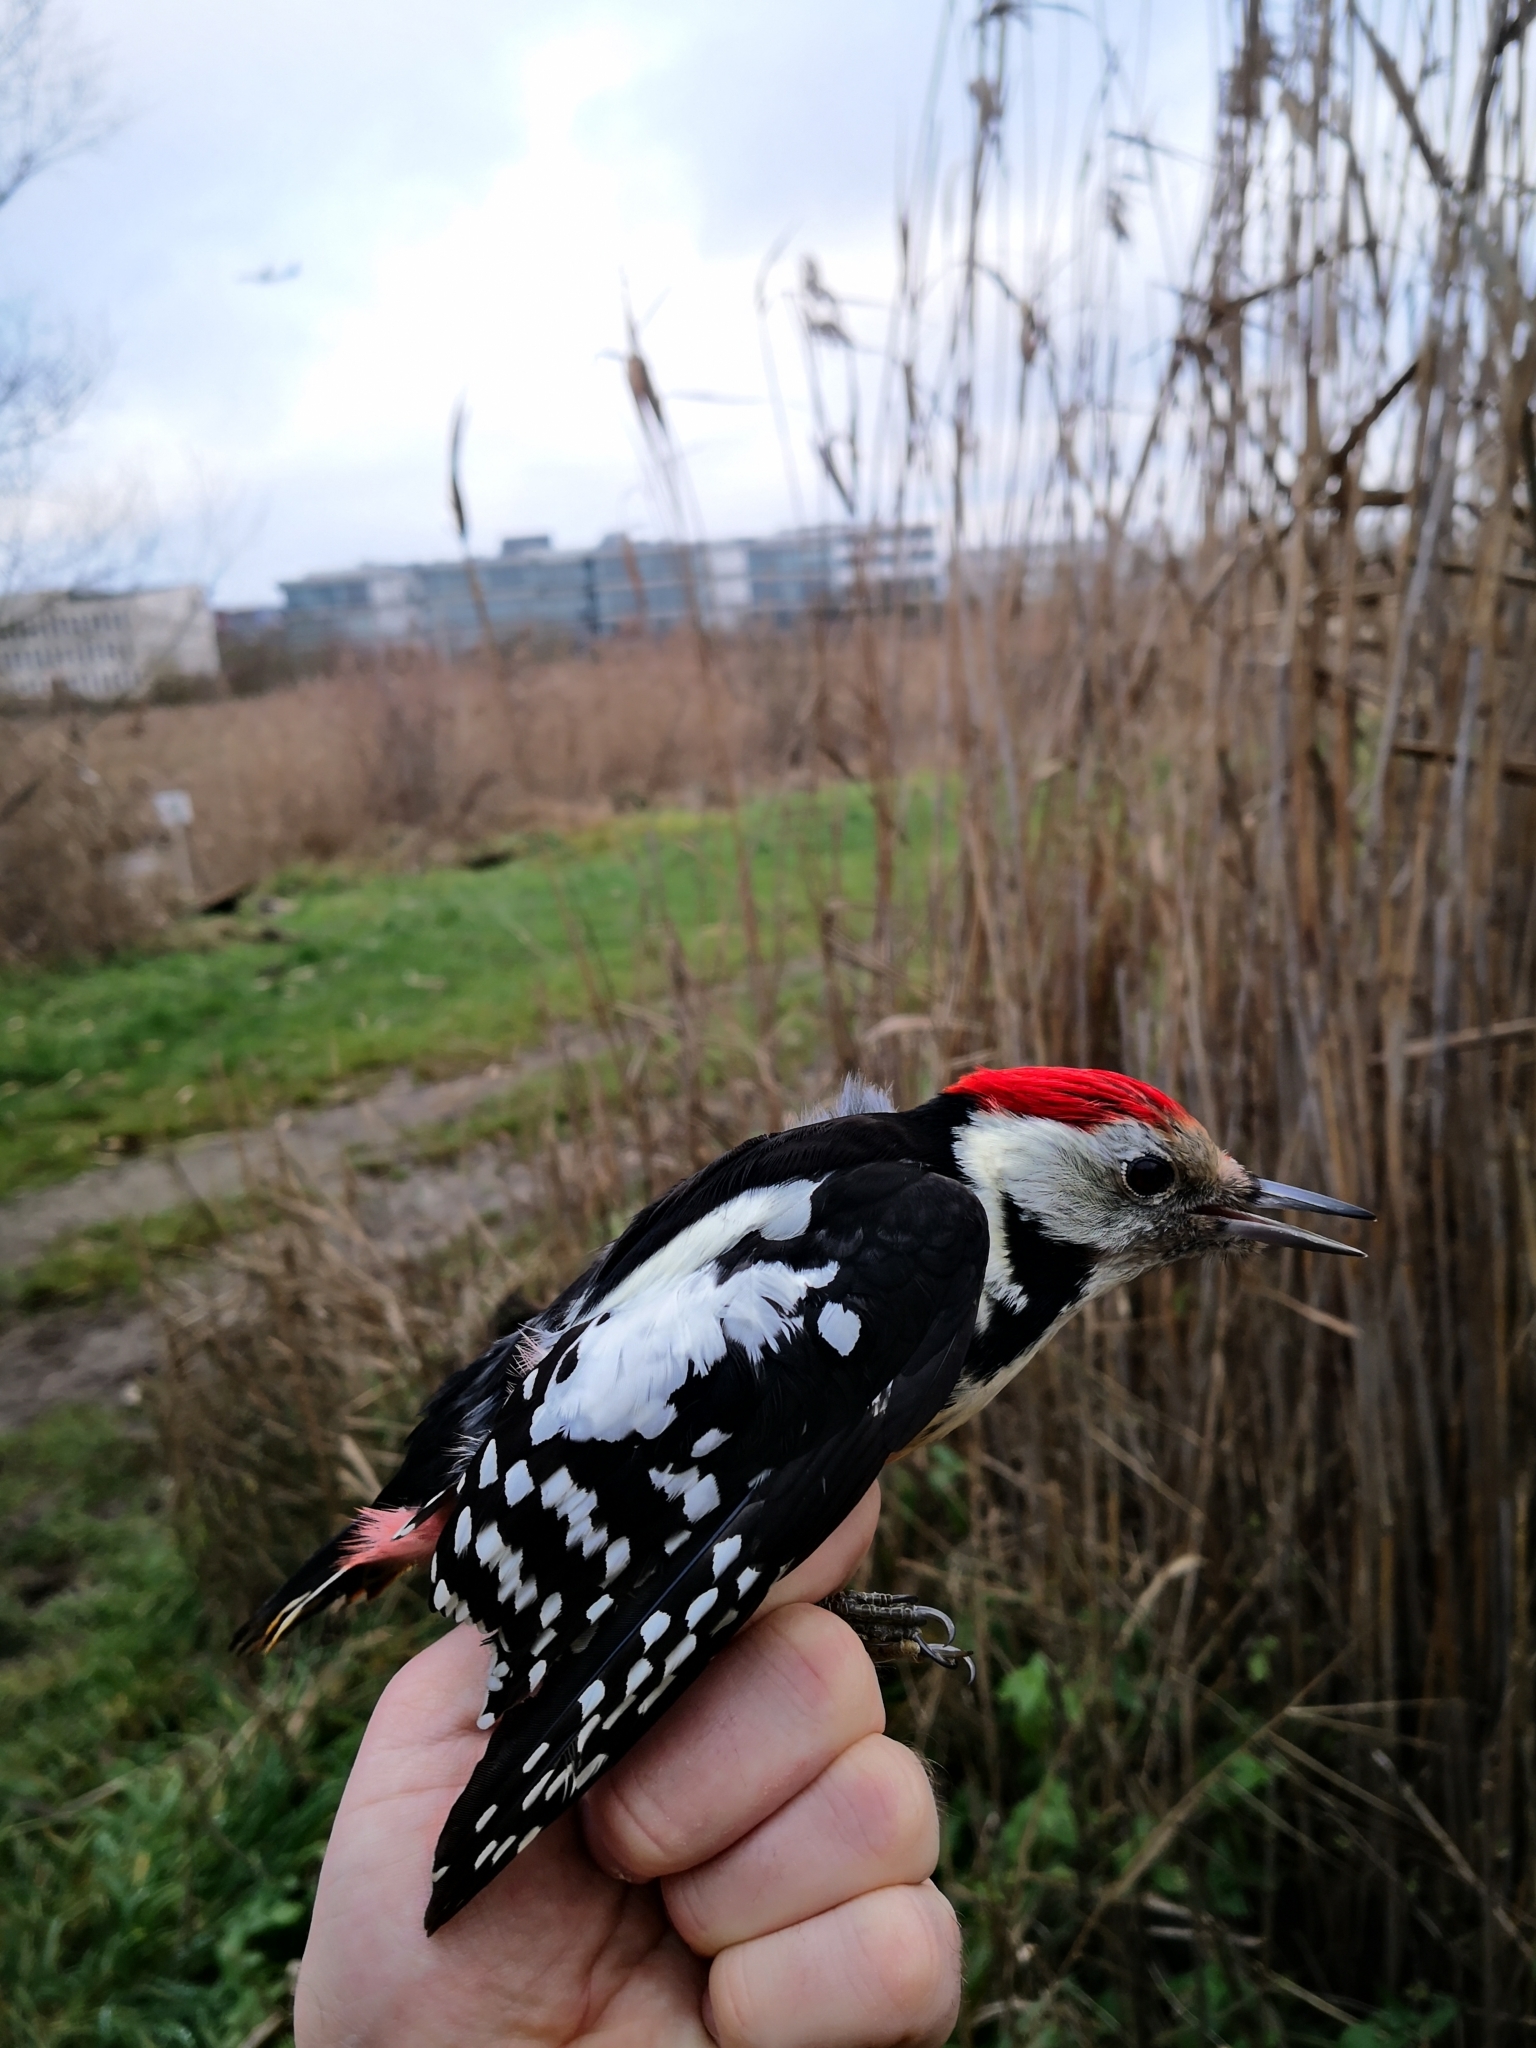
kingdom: Animalia
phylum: Chordata
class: Aves
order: Piciformes
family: Picidae
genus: Dryobates
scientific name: Dryobates minor
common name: Lesser spotted woodpecker
